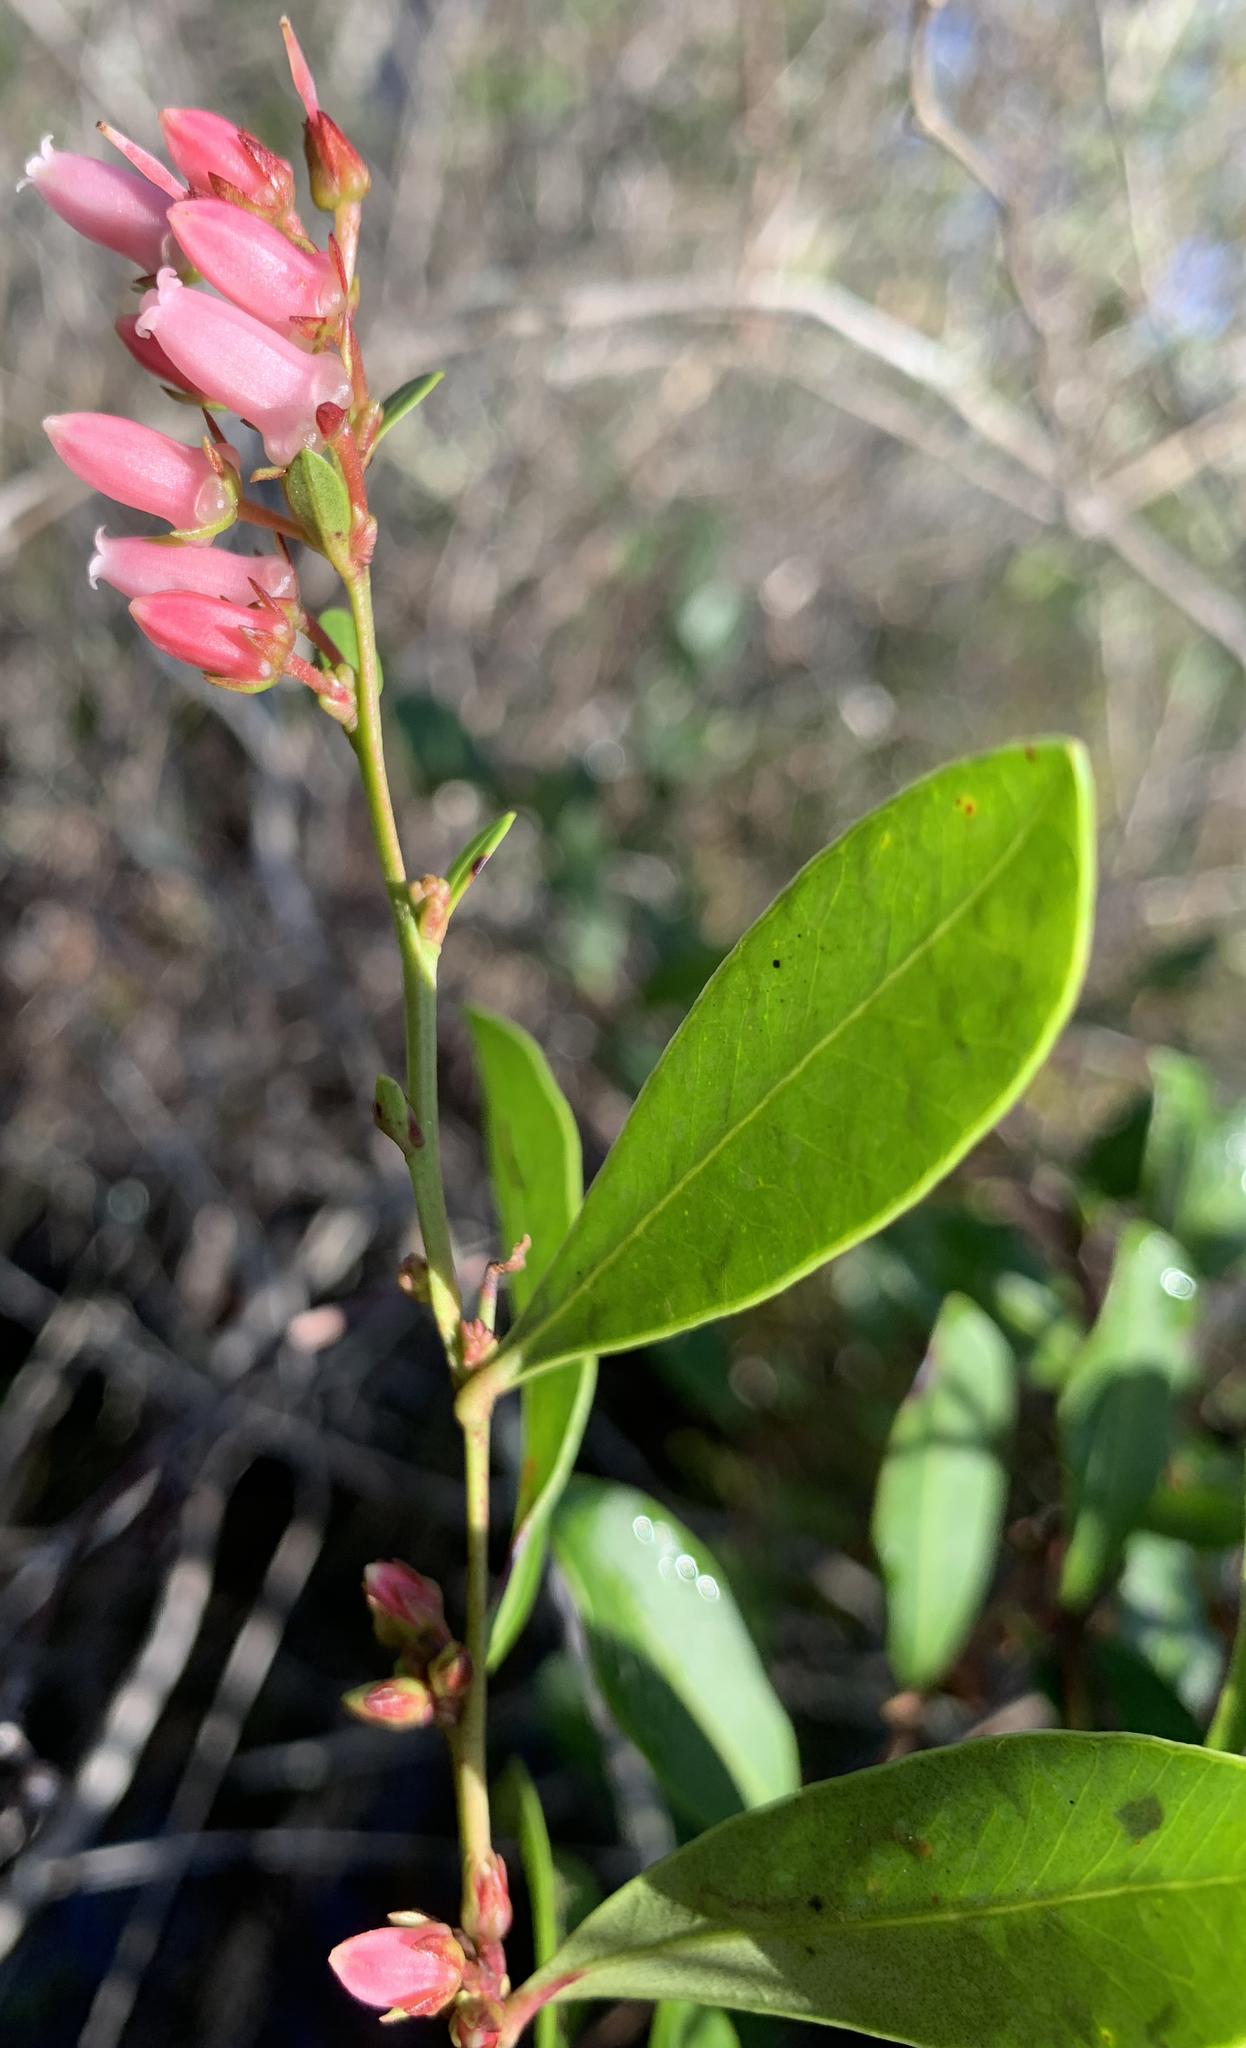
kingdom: Plantae
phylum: Tracheophyta
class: Magnoliopsida
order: Ericales
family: Ericaceae
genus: Lyonia
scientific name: Lyonia lucida
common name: Fetterbush
